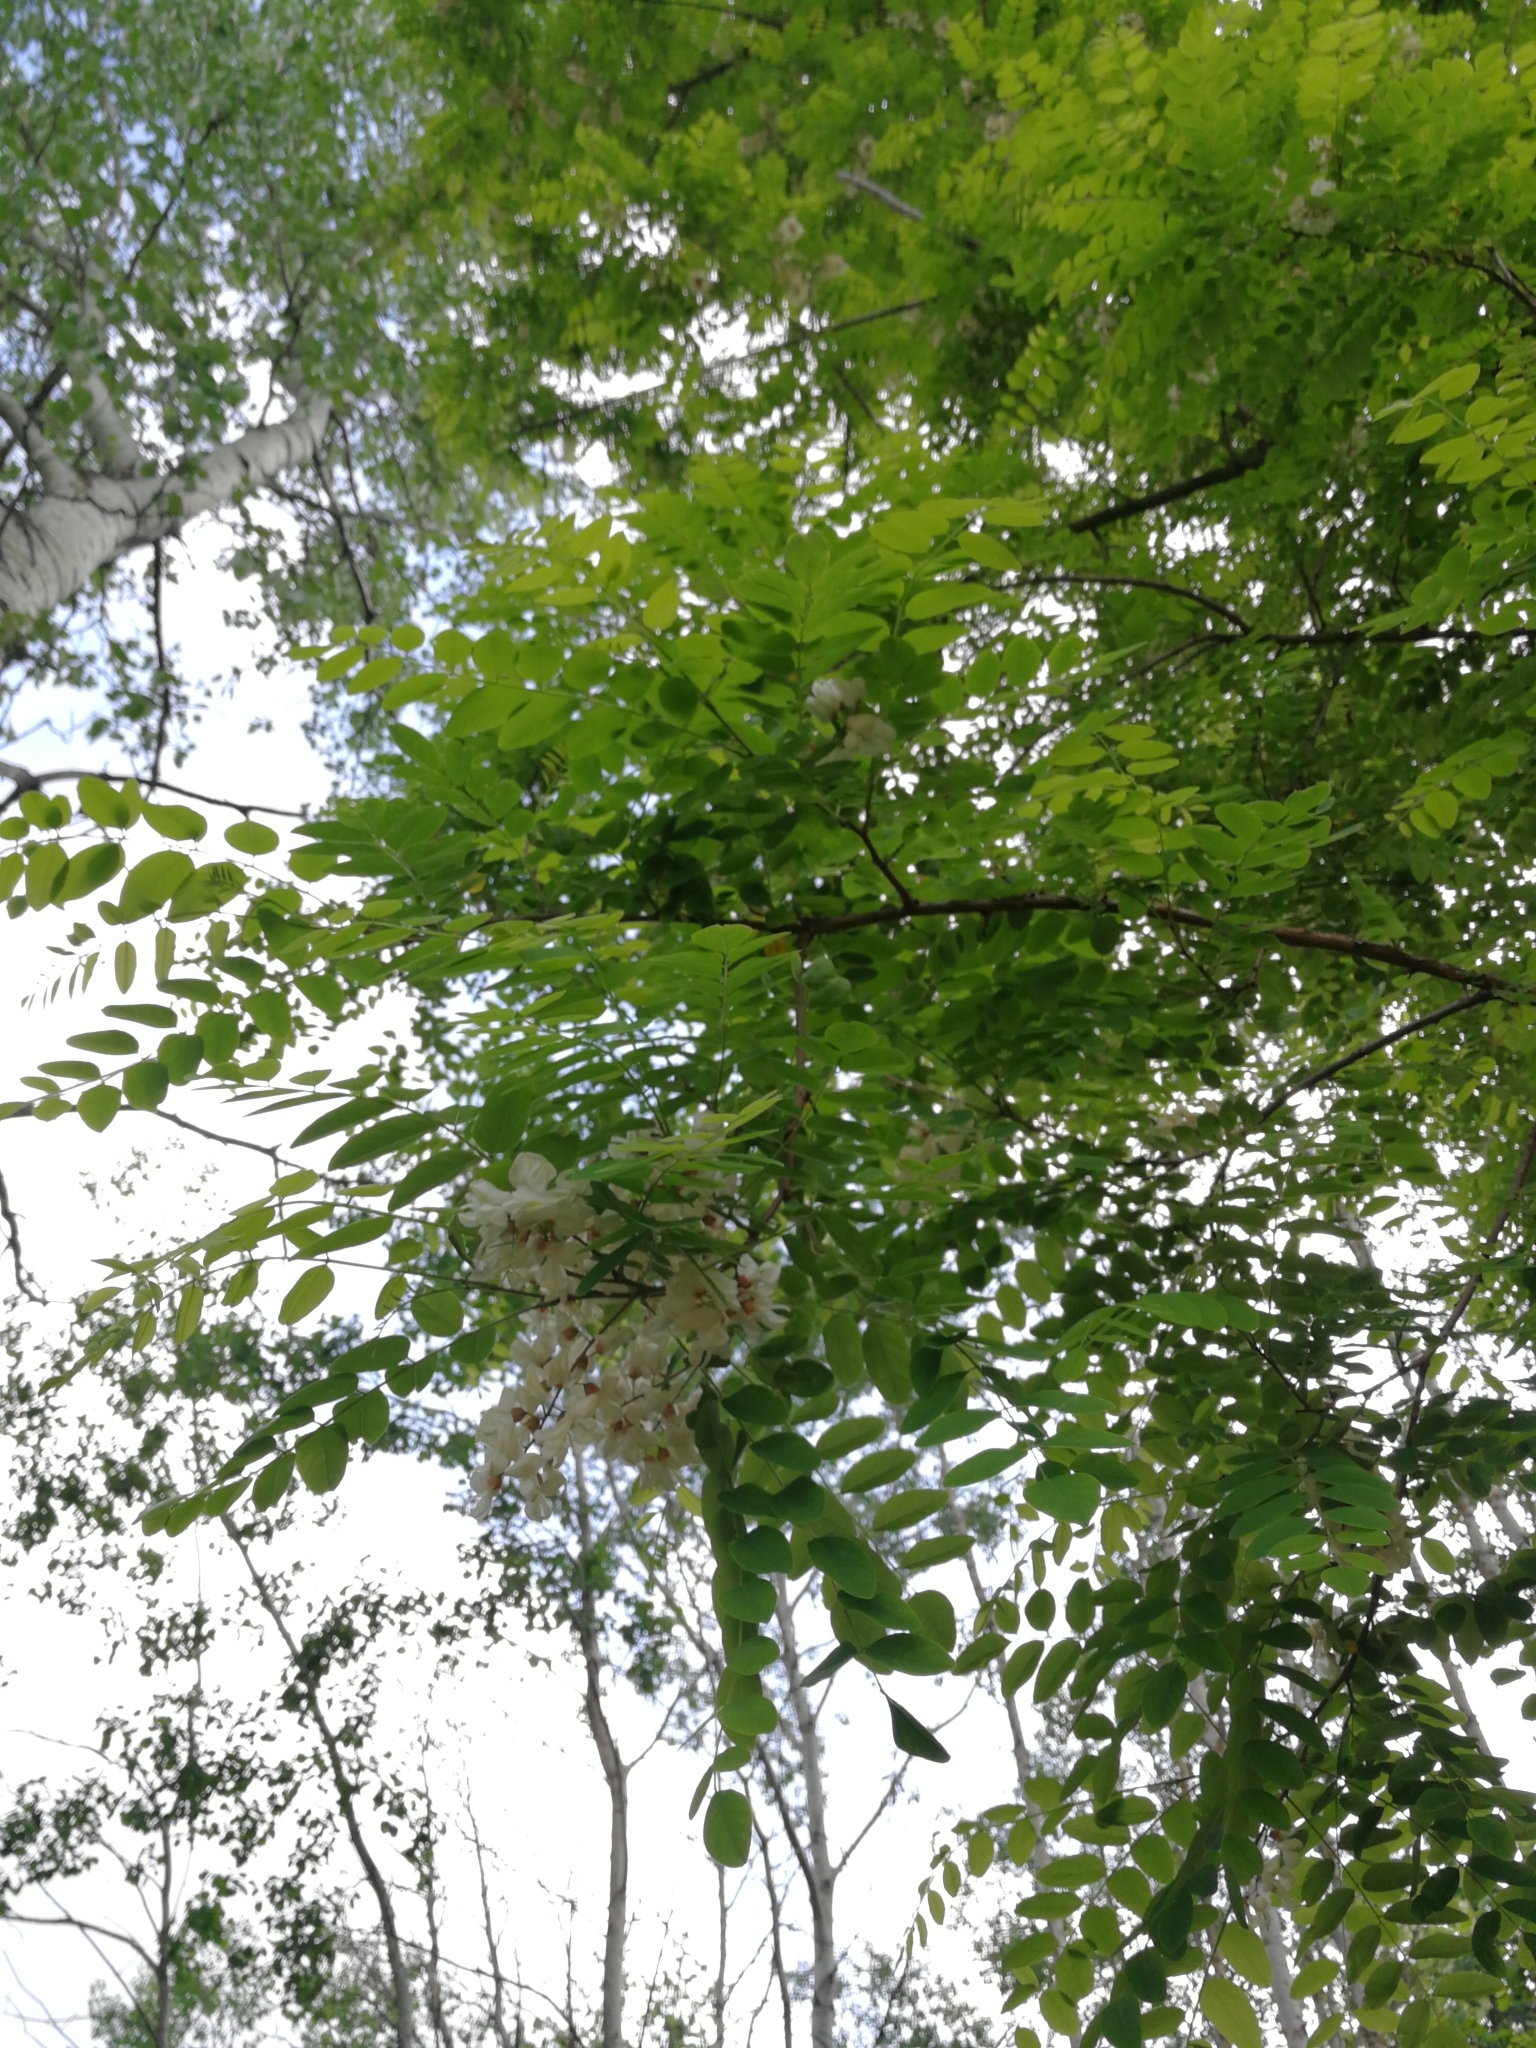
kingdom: Plantae
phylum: Tracheophyta
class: Magnoliopsida
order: Fabales
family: Fabaceae
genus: Robinia
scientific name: Robinia pseudoacacia
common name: Black locust
